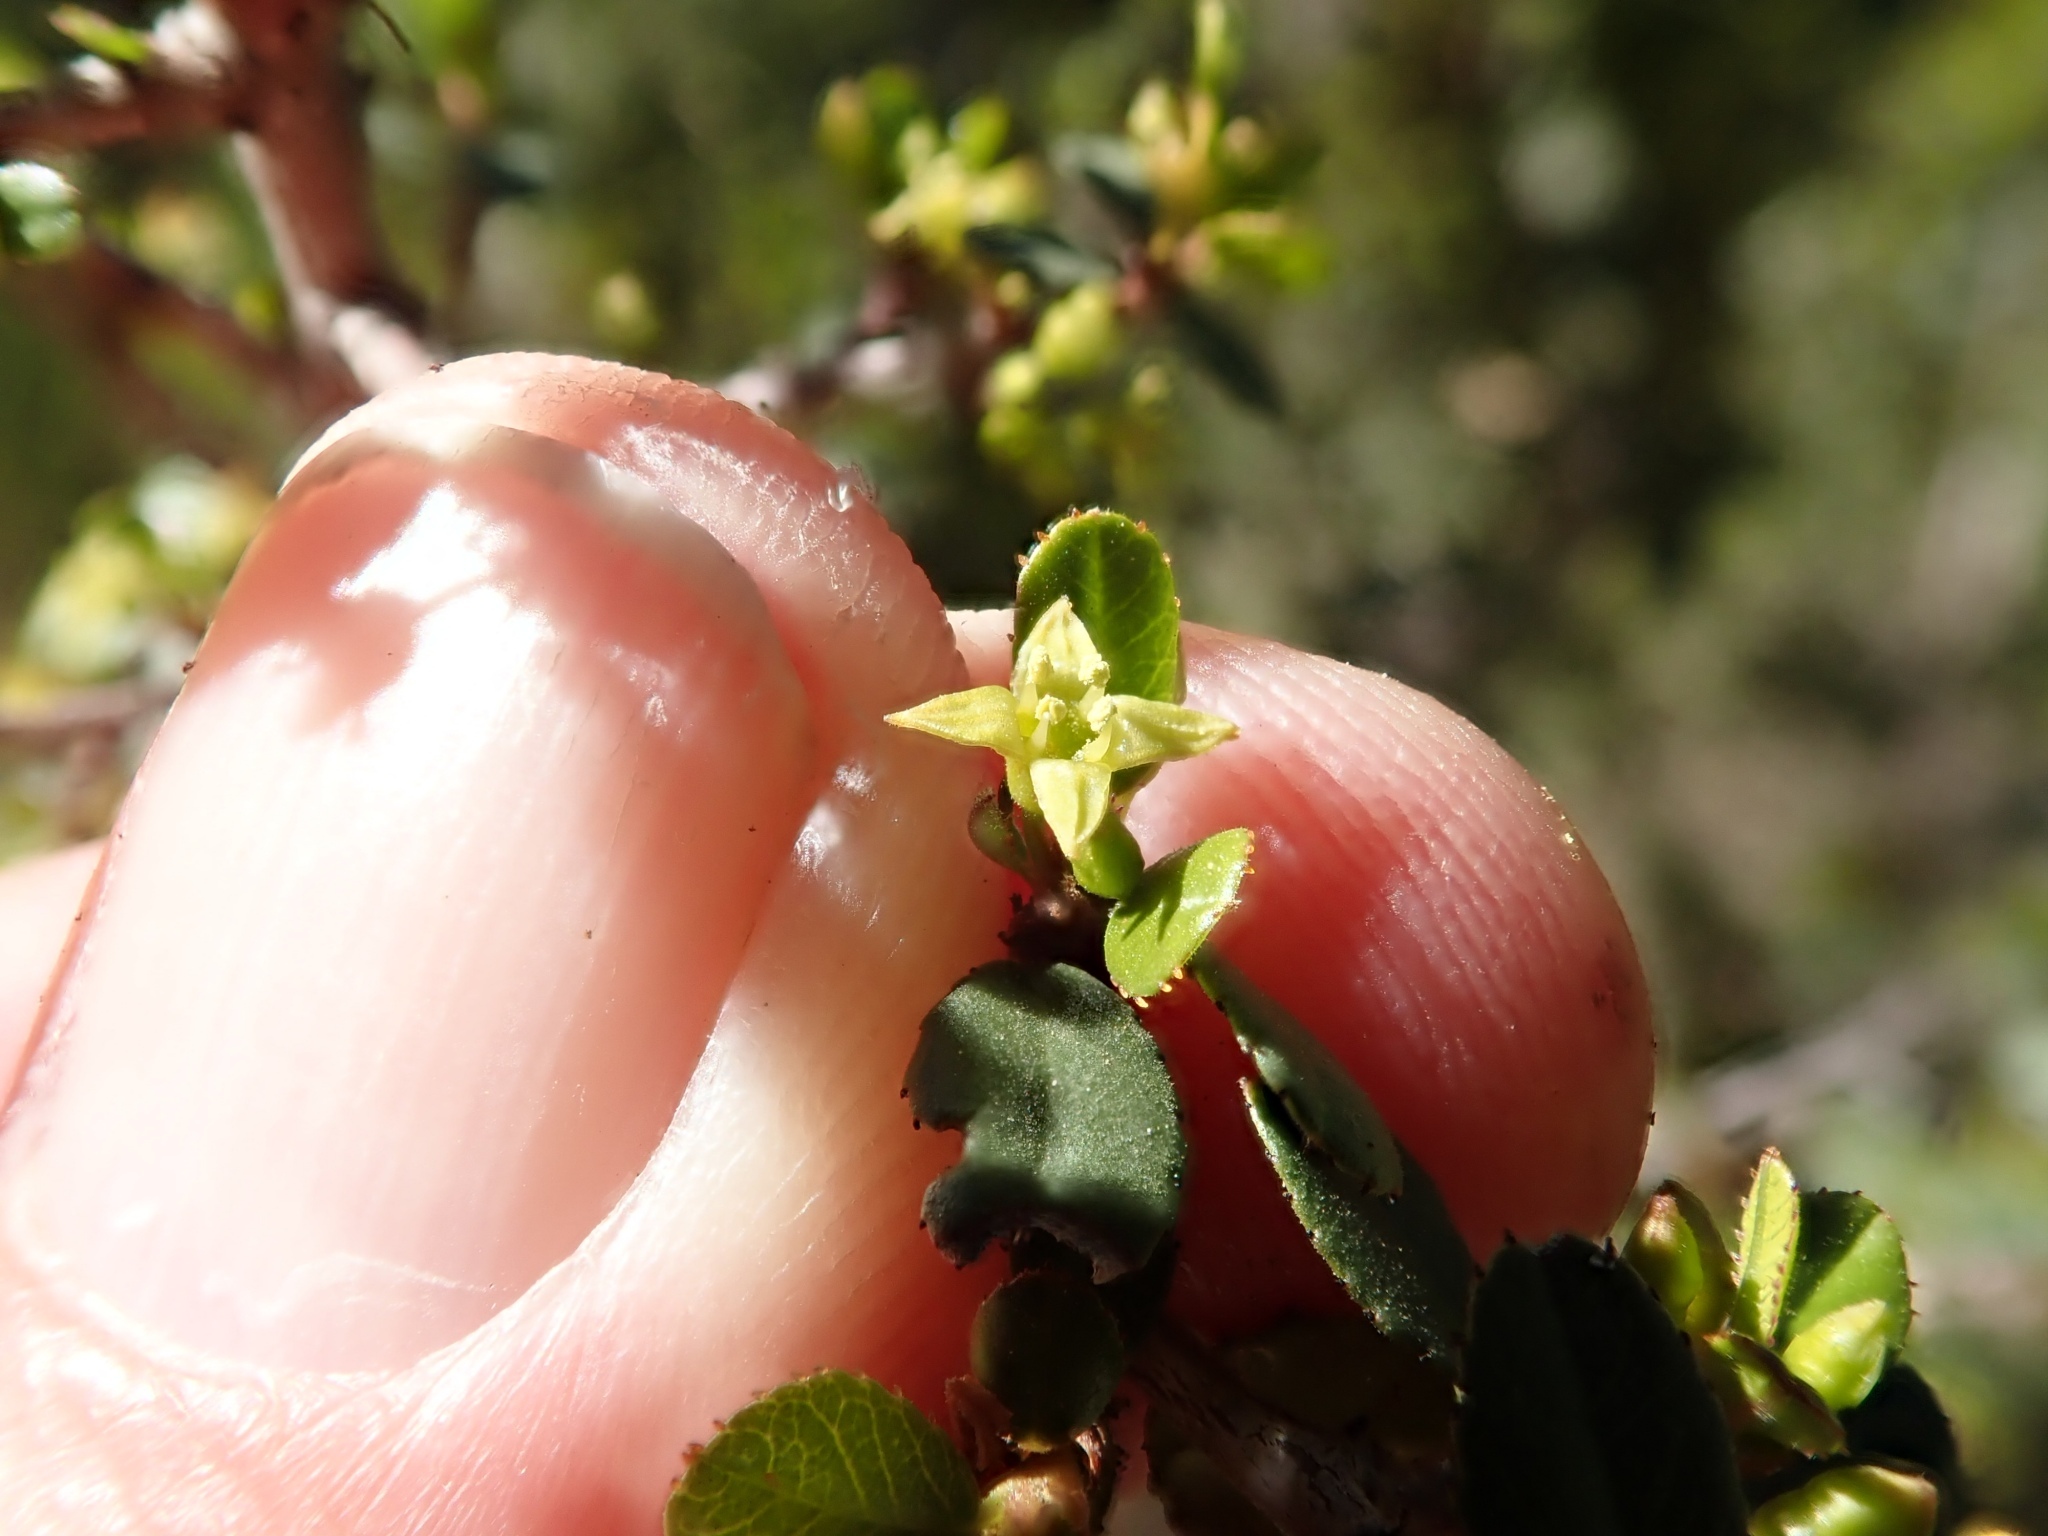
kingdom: Plantae
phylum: Tracheophyta
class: Magnoliopsida
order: Rosales
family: Rhamnaceae
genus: Endotropis
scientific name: Endotropis crocea
